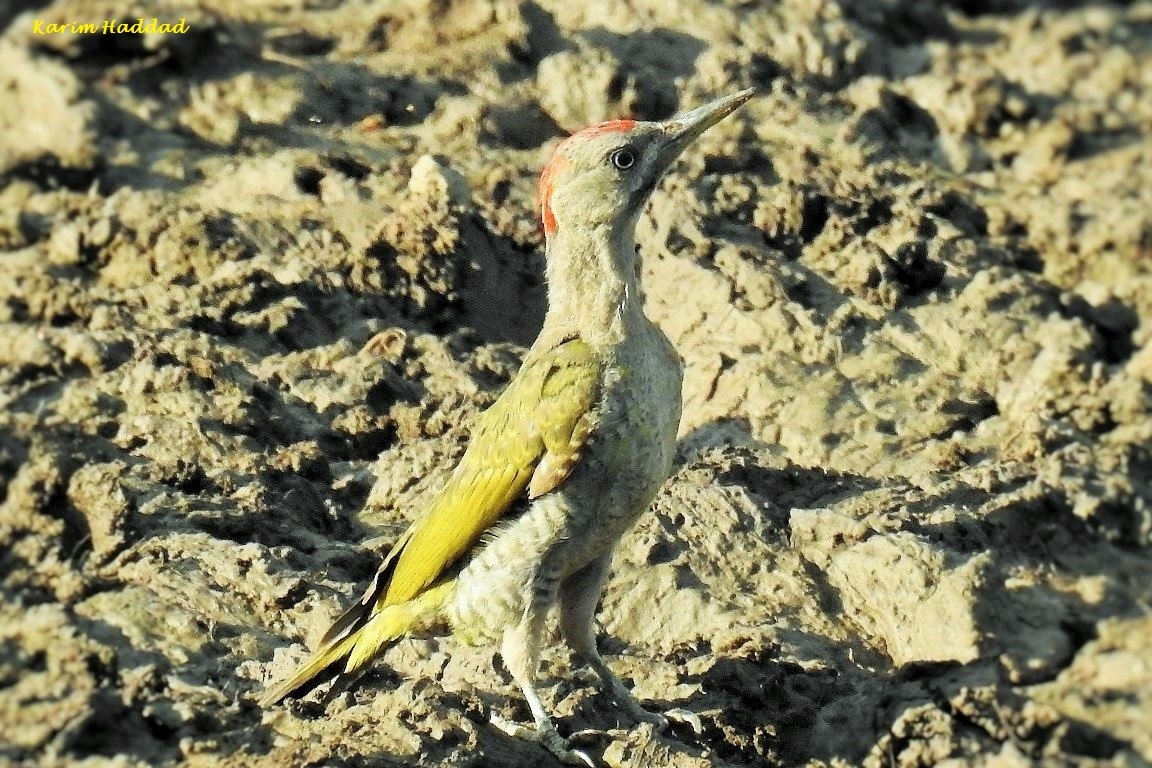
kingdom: Animalia
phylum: Chordata
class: Aves
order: Piciformes
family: Picidae
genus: Picus
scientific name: Picus vaillantii
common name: Levaillant's woodpecker
